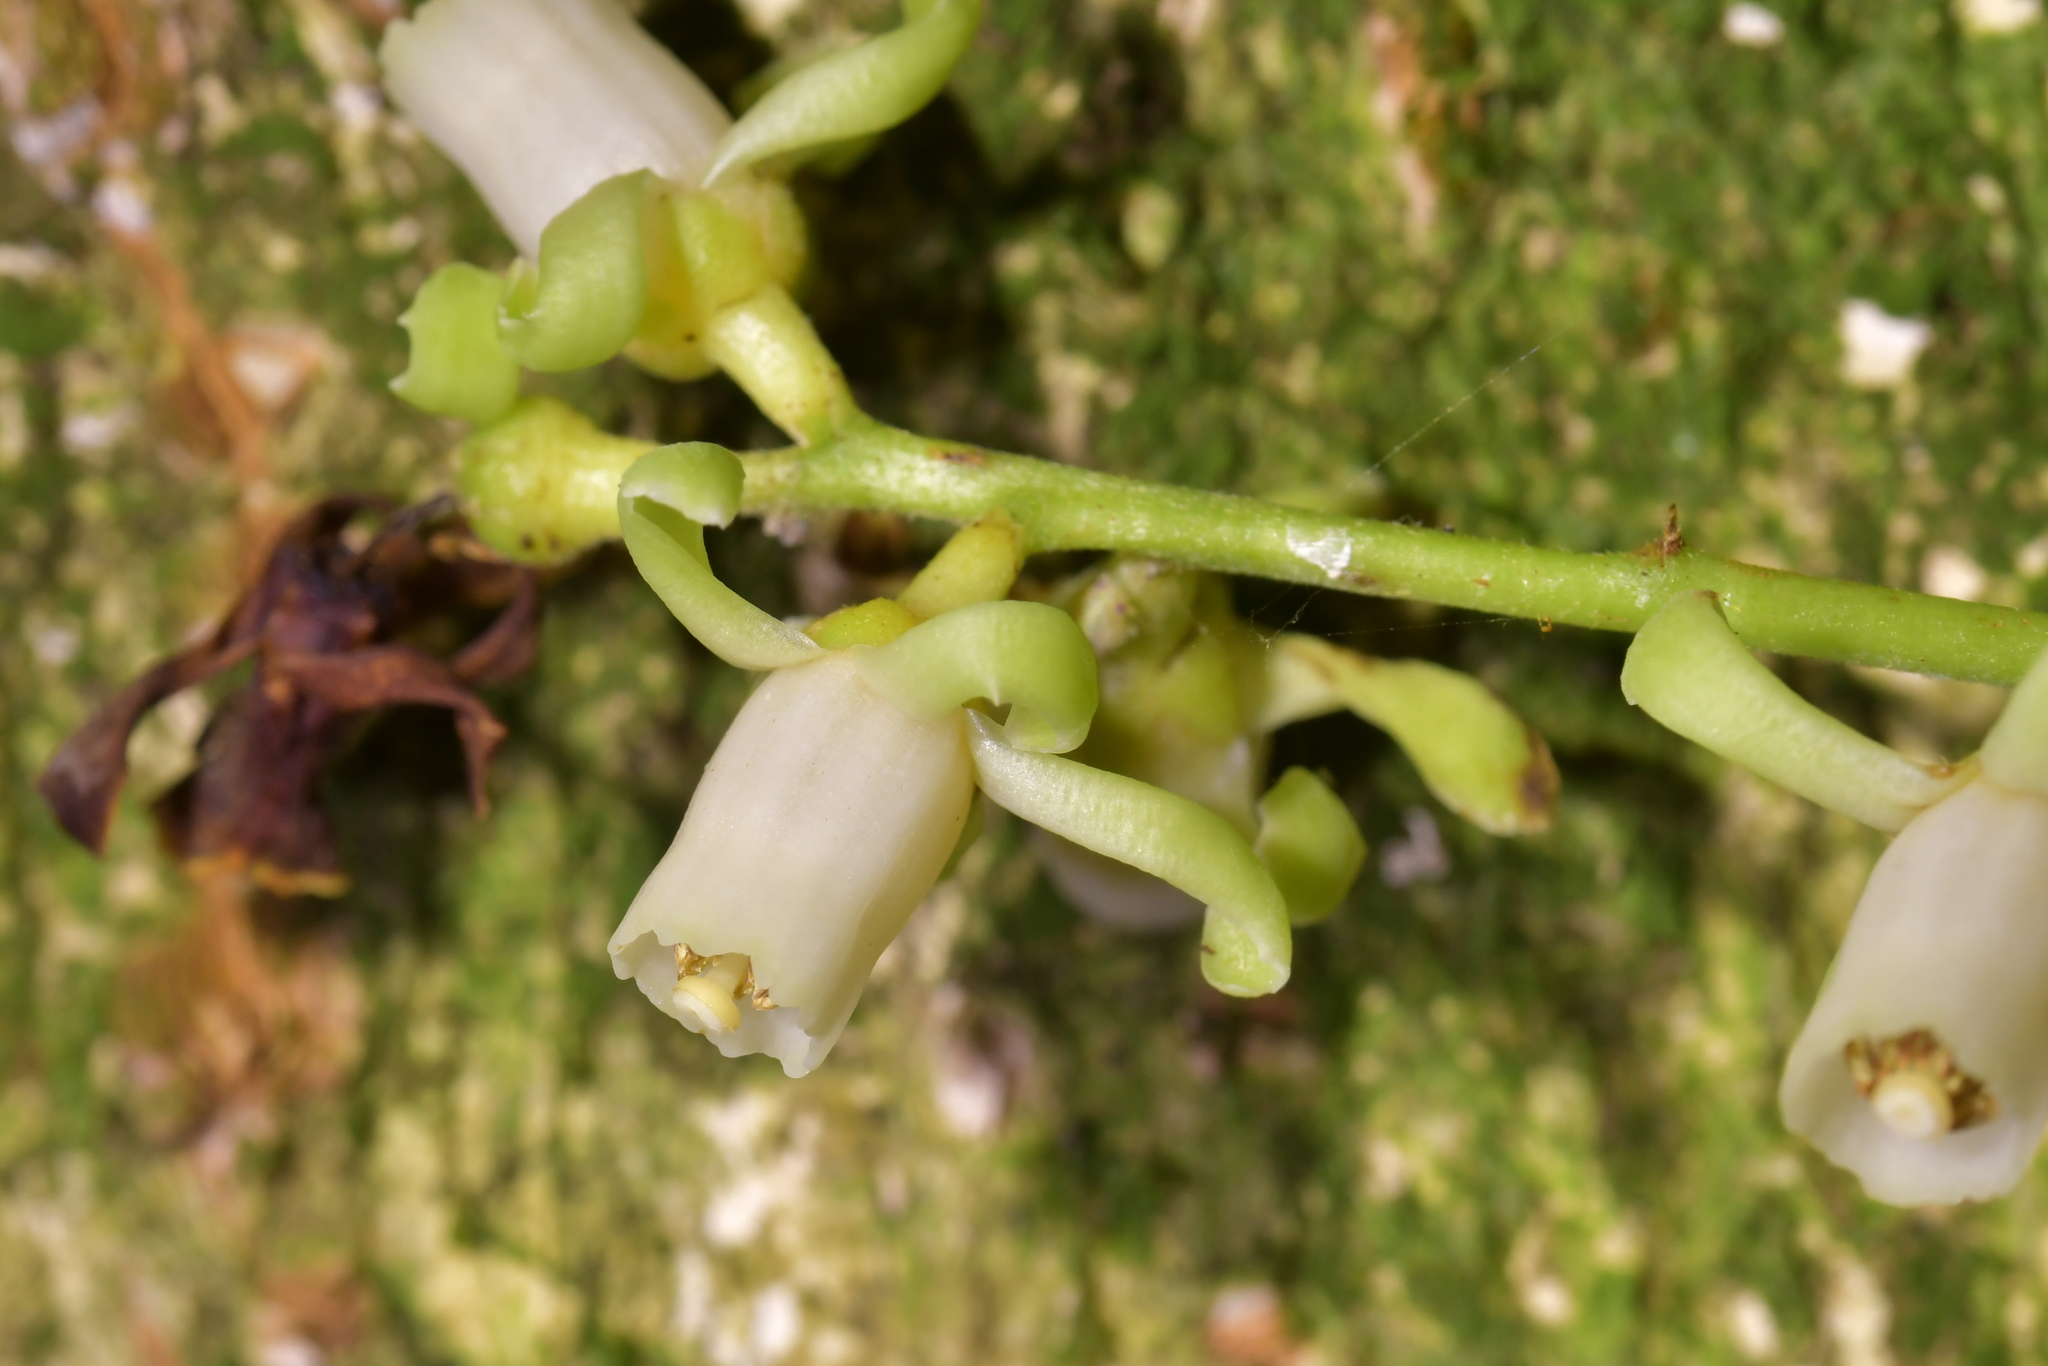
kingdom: Plantae
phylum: Tracheophyta
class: Magnoliopsida
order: Sapindales
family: Meliaceae
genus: Didymocheton
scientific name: Didymocheton spectabilis
